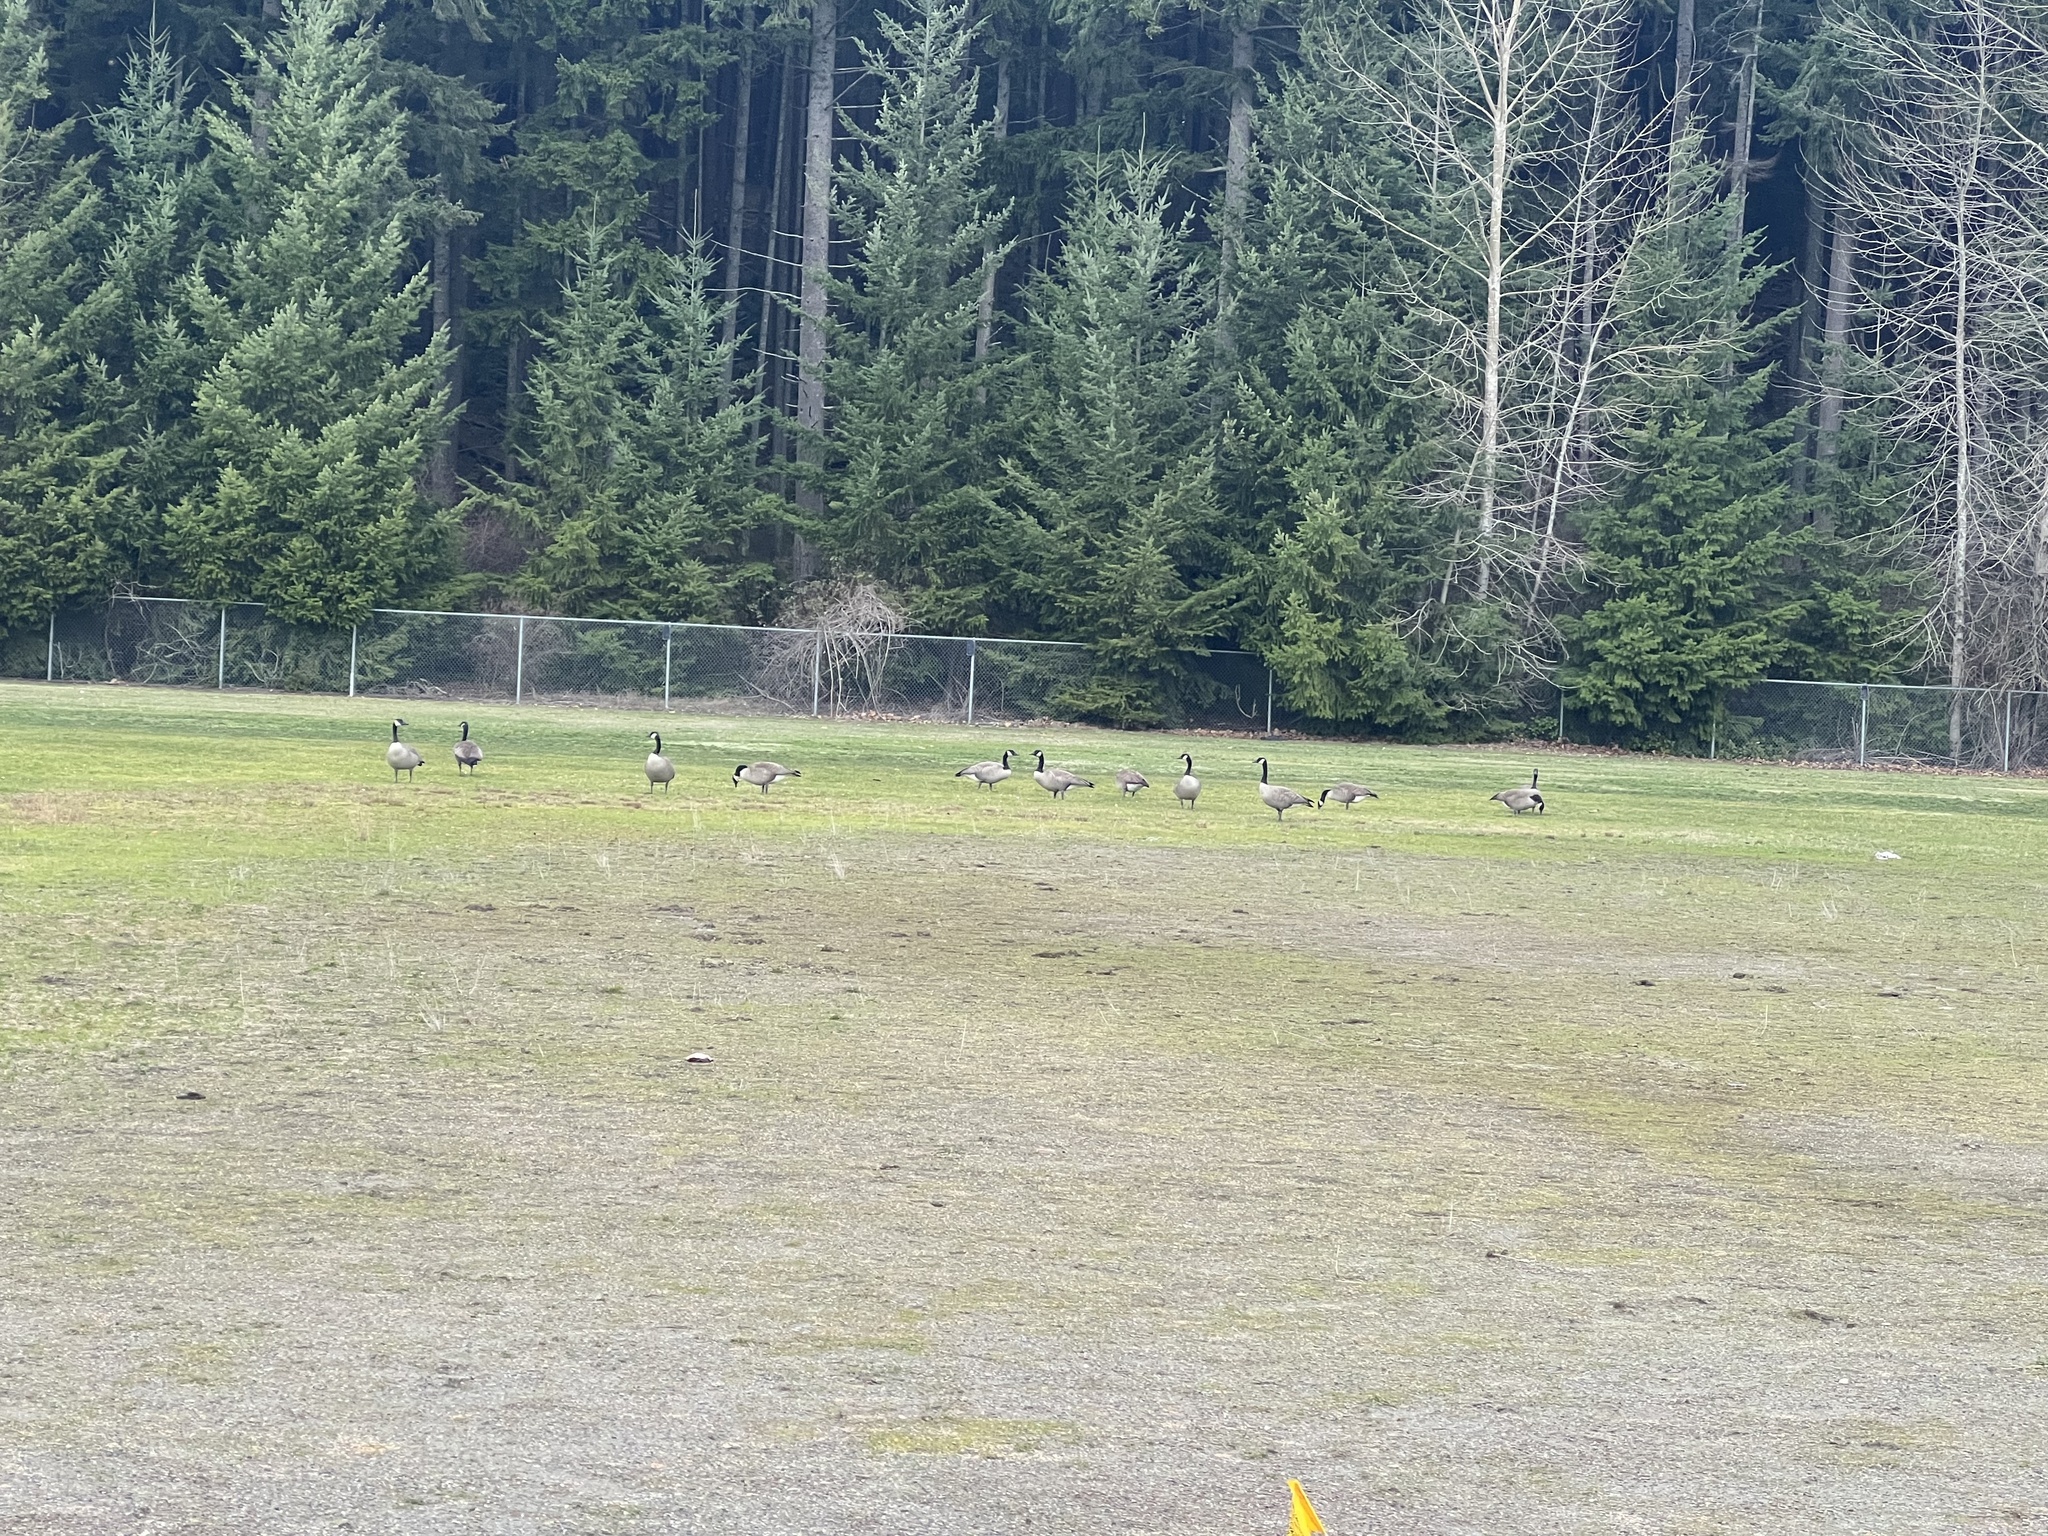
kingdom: Animalia
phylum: Chordata
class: Aves
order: Anseriformes
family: Anatidae
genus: Branta
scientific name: Branta canadensis
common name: Canada goose
